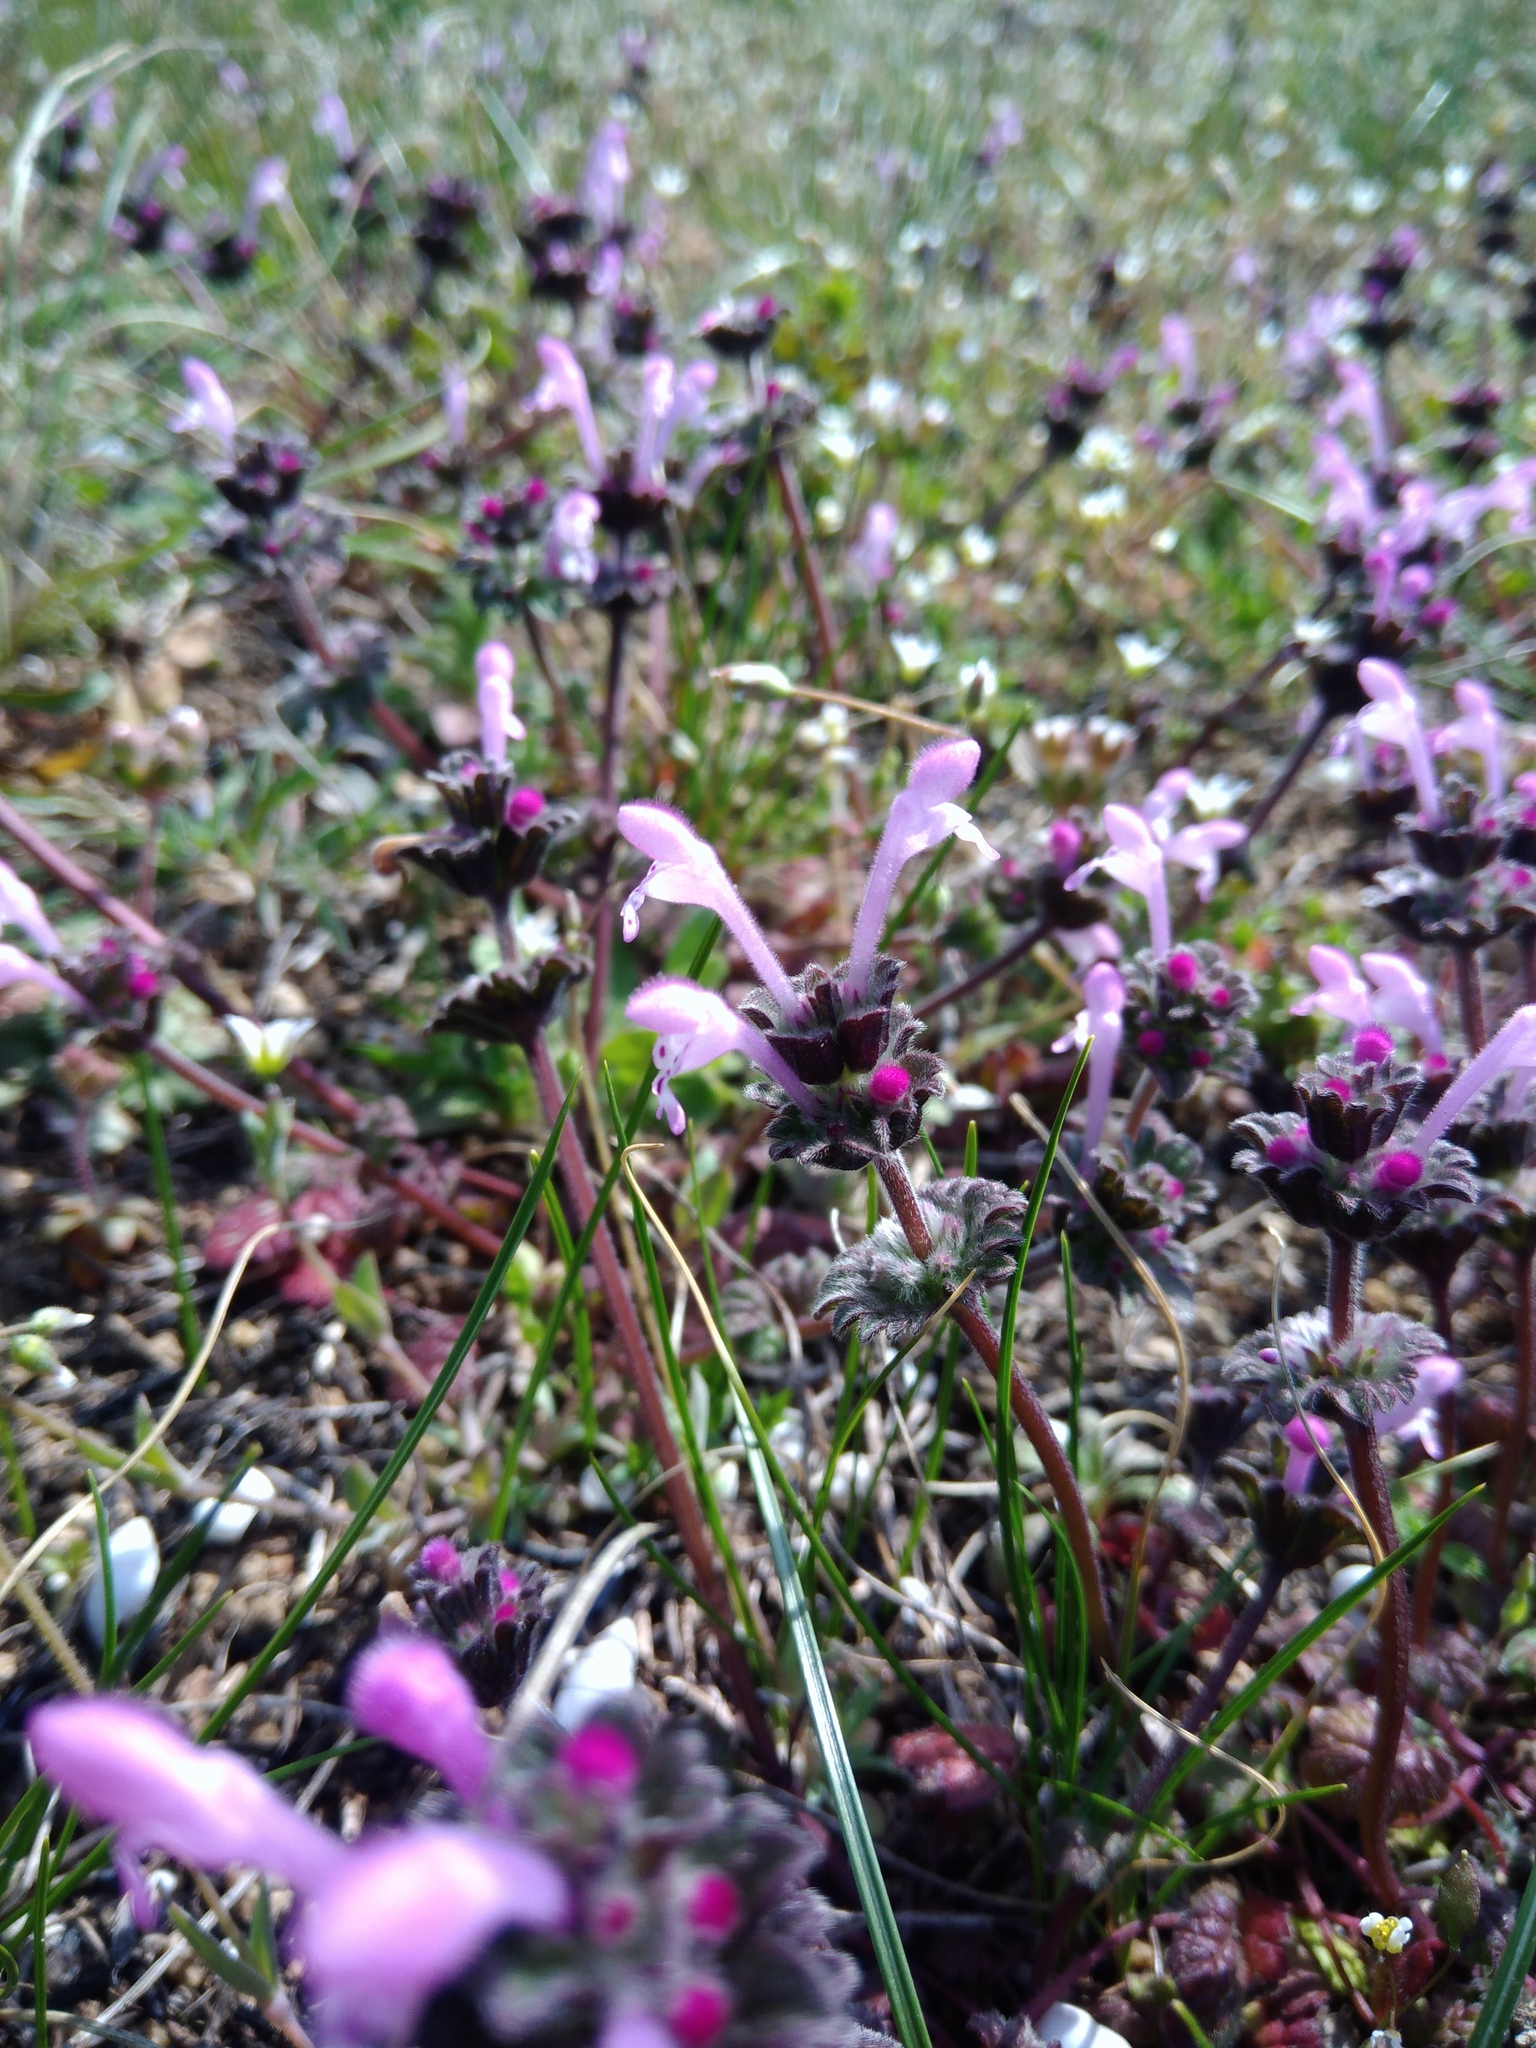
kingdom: Plantae
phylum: Tracheophyta
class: Magnoliopsida
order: Lamiales
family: Lamiaceae
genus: Lamium
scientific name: Lamium amplexicaule
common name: Henbit dead-nettle
